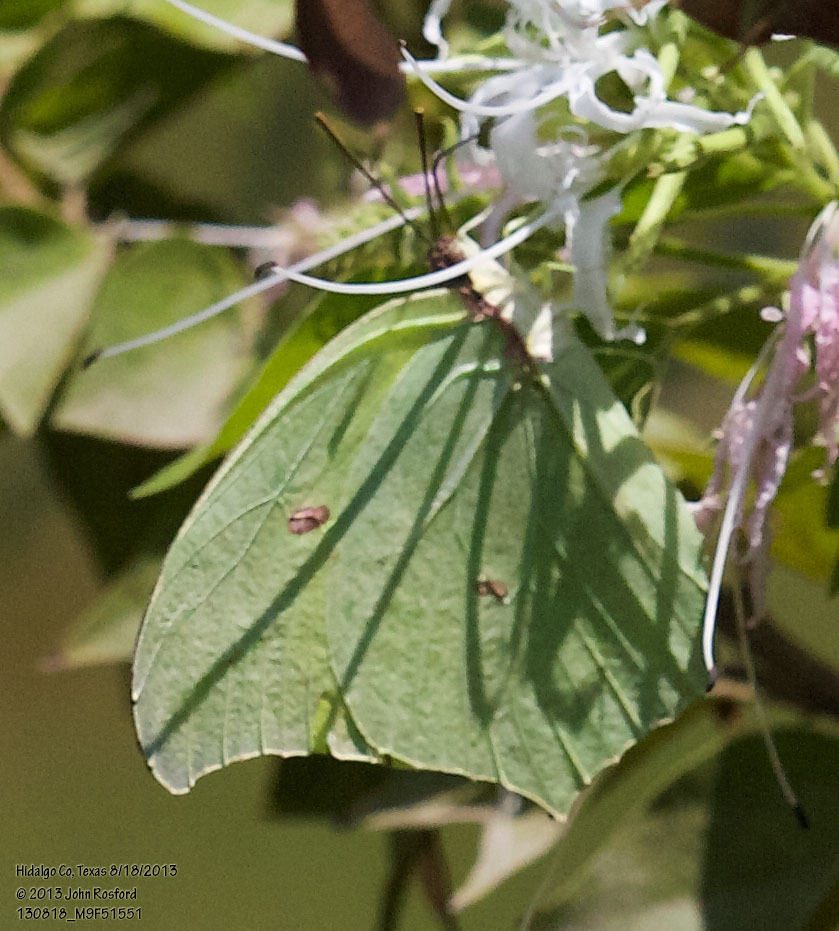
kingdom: Animalia
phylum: Arthropoda
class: Insecta
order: Lepidoptera
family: Pieridae
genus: Anteos
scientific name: Anteos maerula
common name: Angled sulphur
